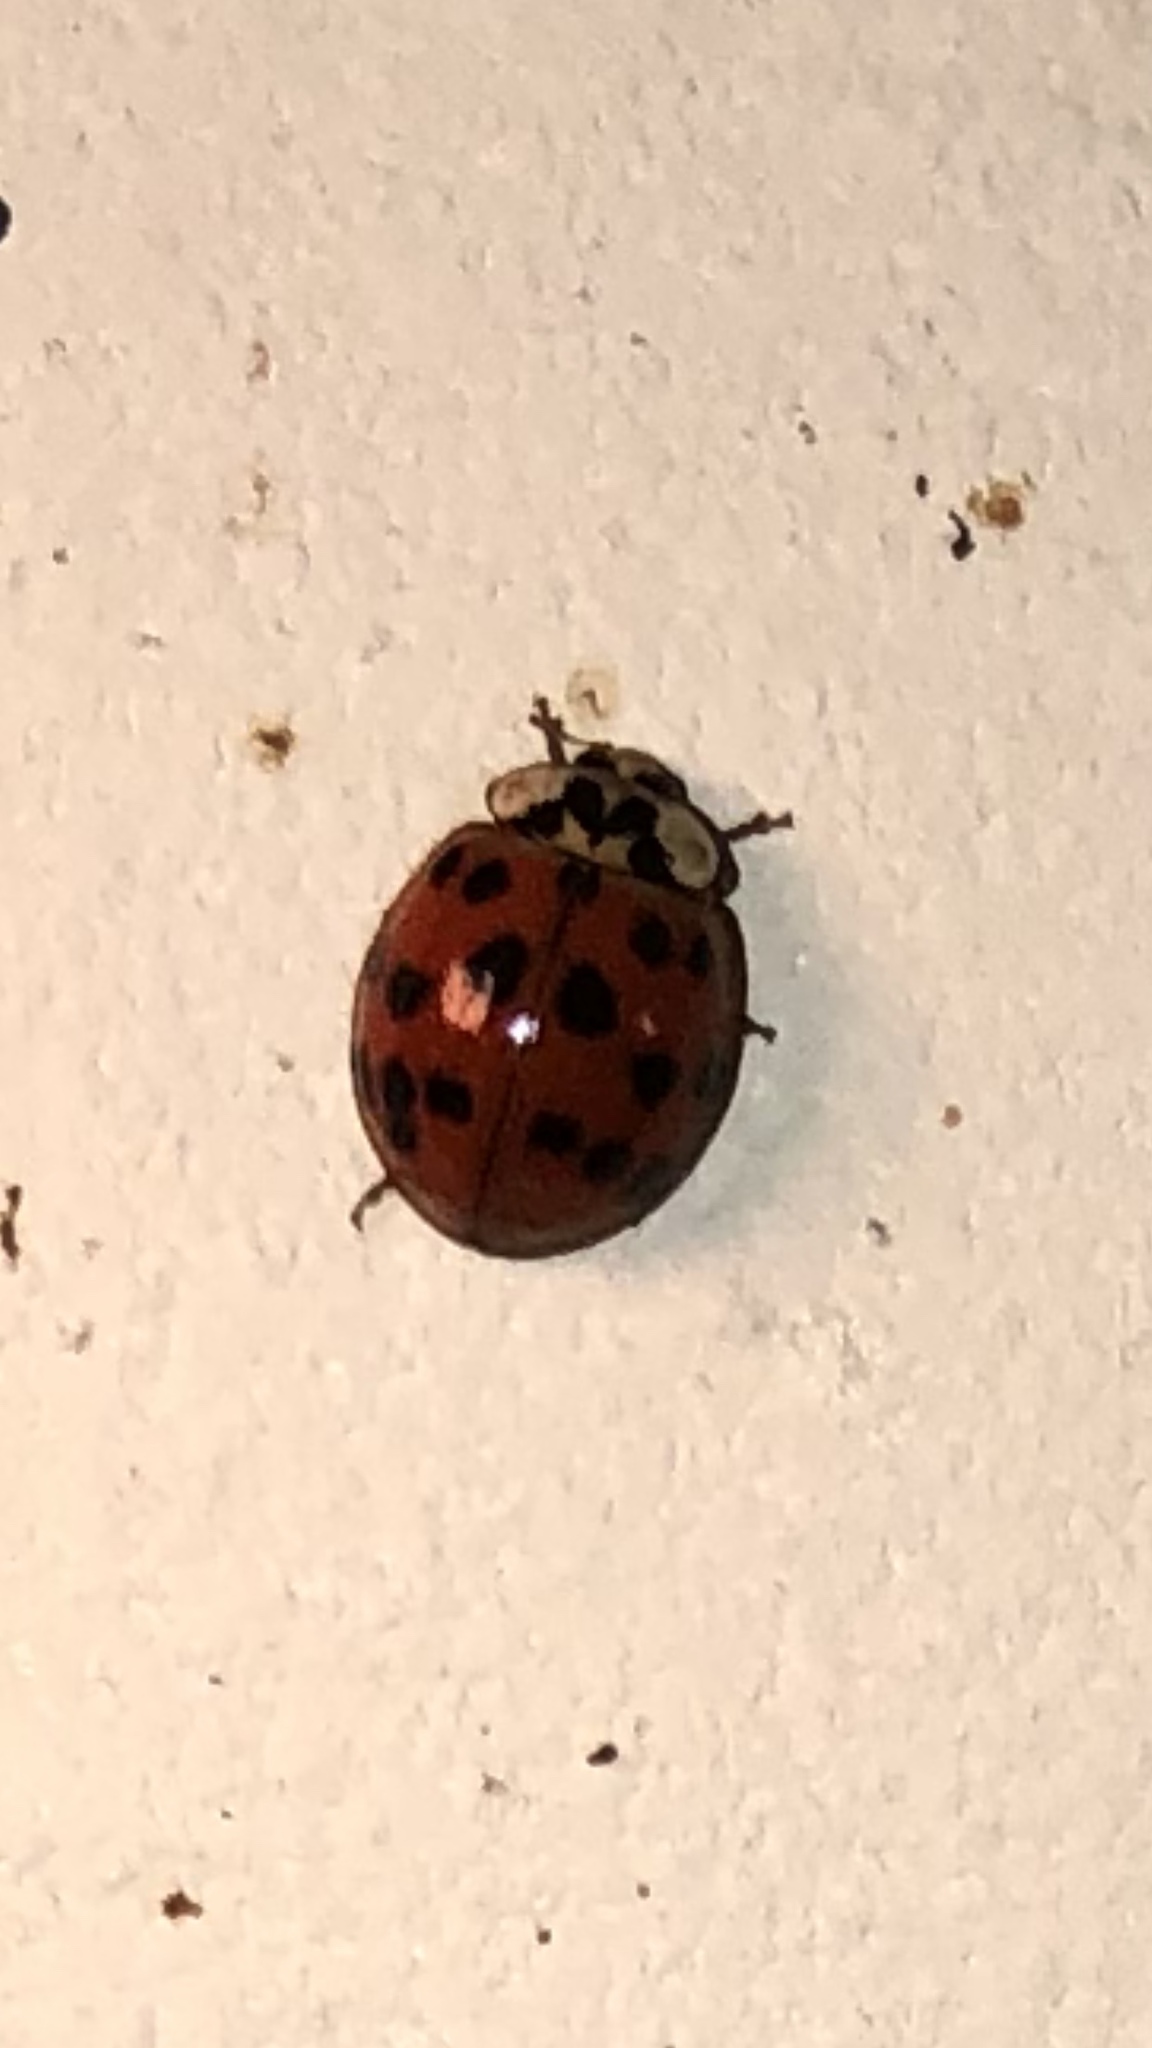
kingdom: Animalia
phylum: Arthropoda
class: Insecta
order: Coleoptera
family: Coccinellidae
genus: Harmonia
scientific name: Harmonia axyridis
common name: Harlequin ladybird
